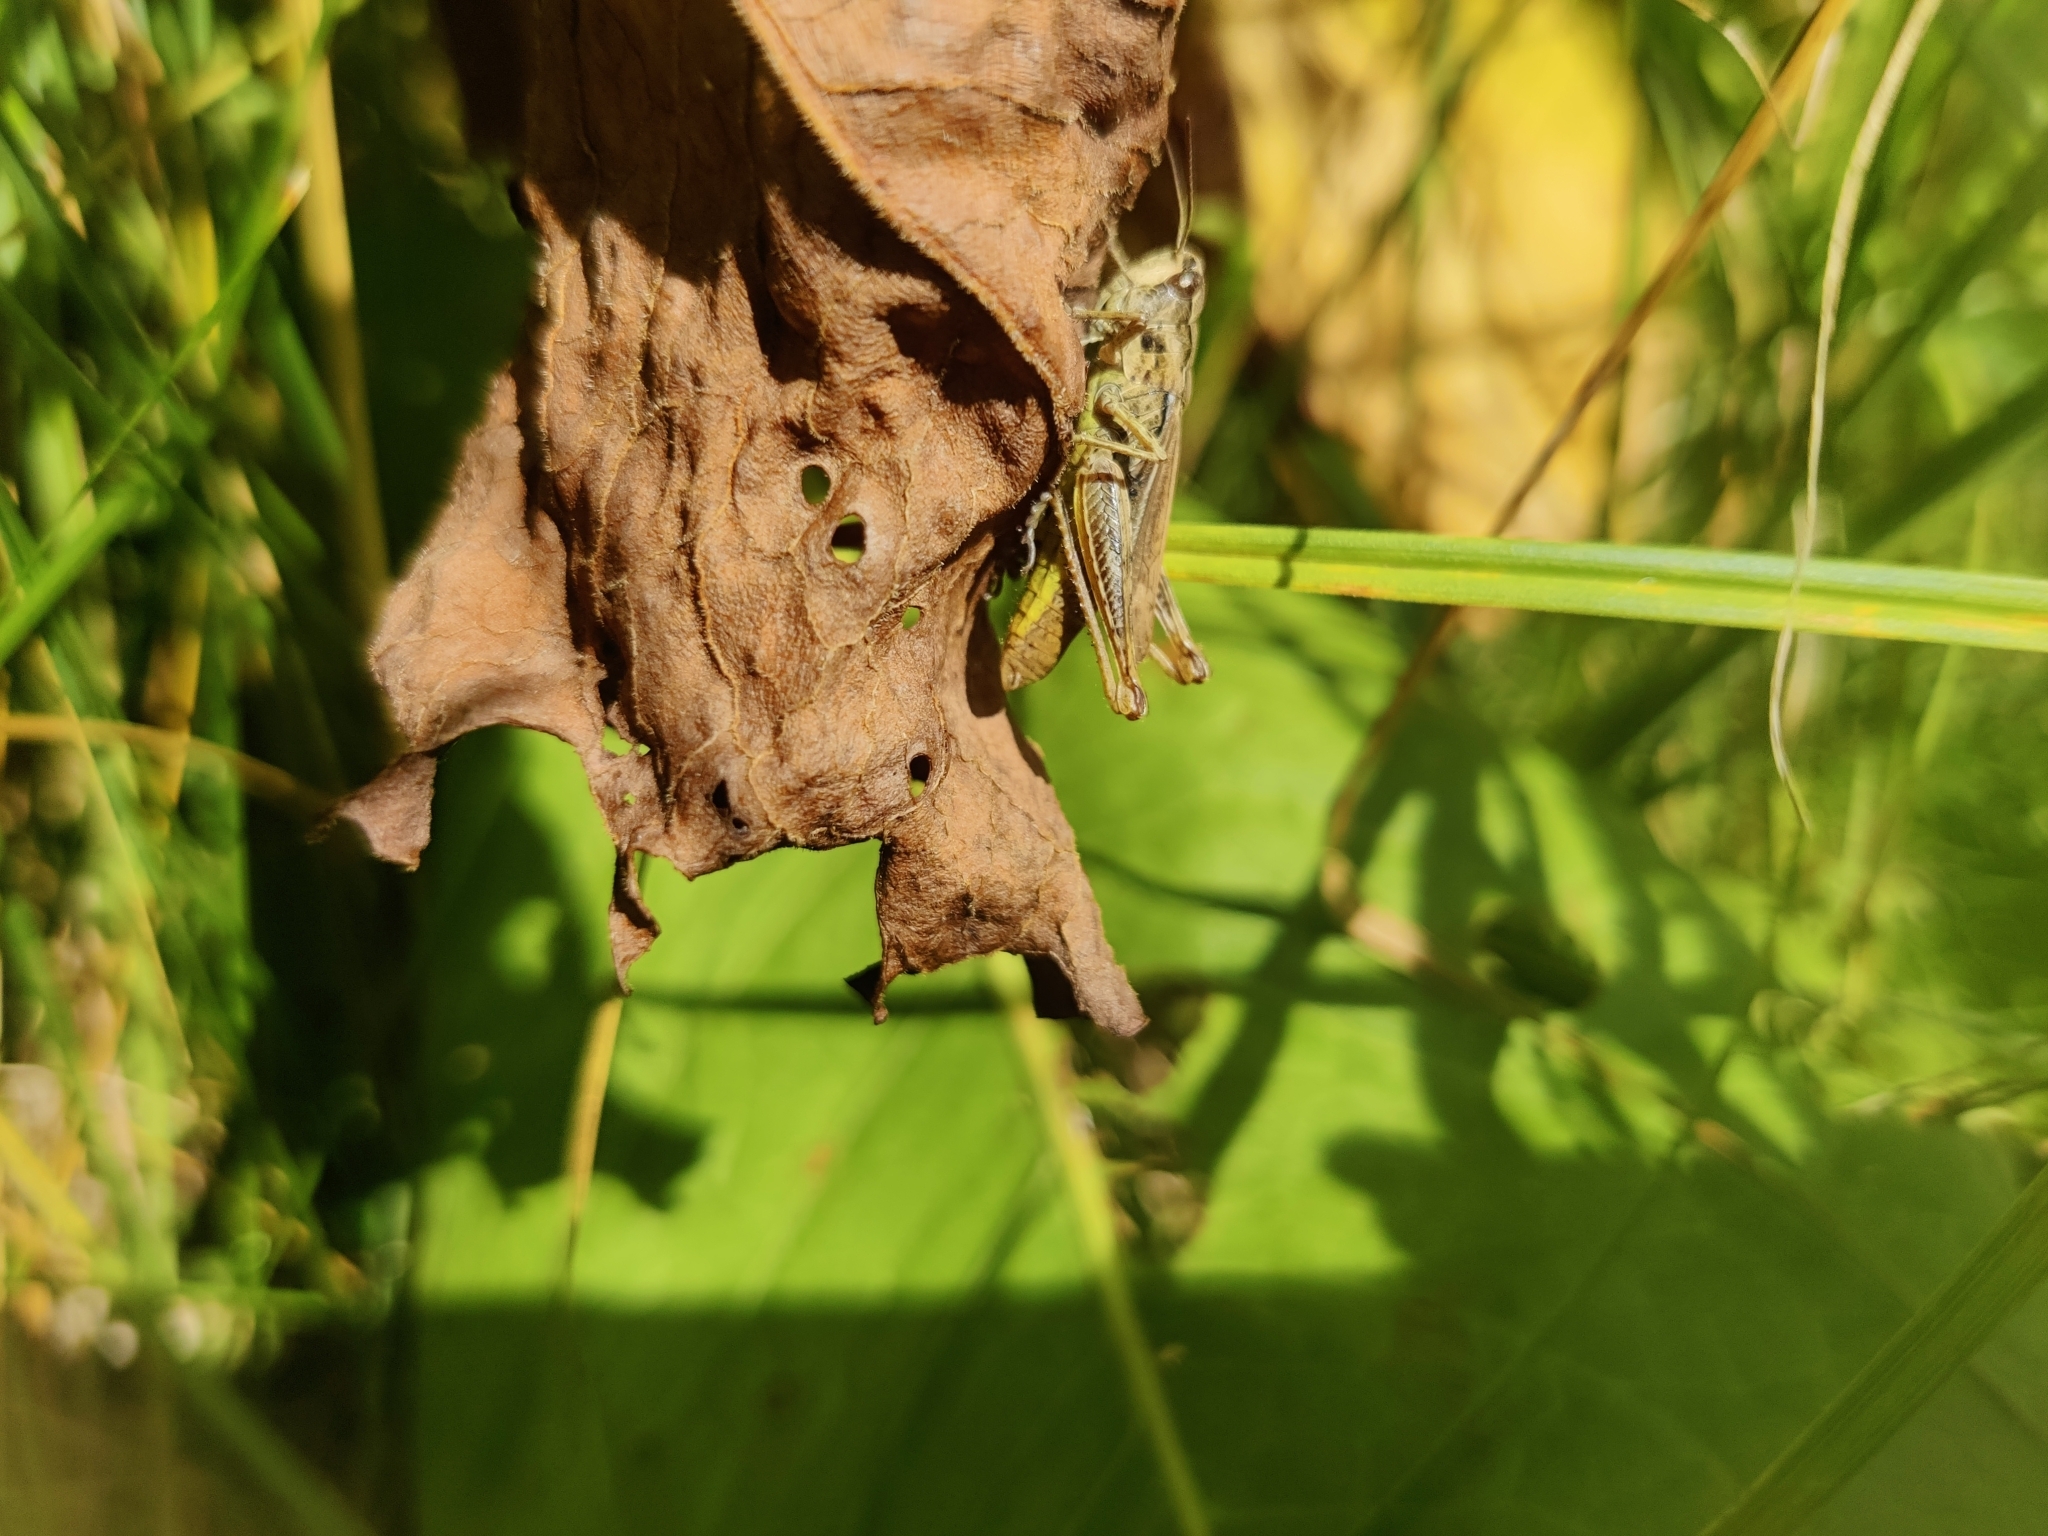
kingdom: Animalia
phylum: Arthropoda
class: Insecta
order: Orthoptera
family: Acrididae
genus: Chorthippus
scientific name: Chorthippus apricarius
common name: Upland field grasshopper
